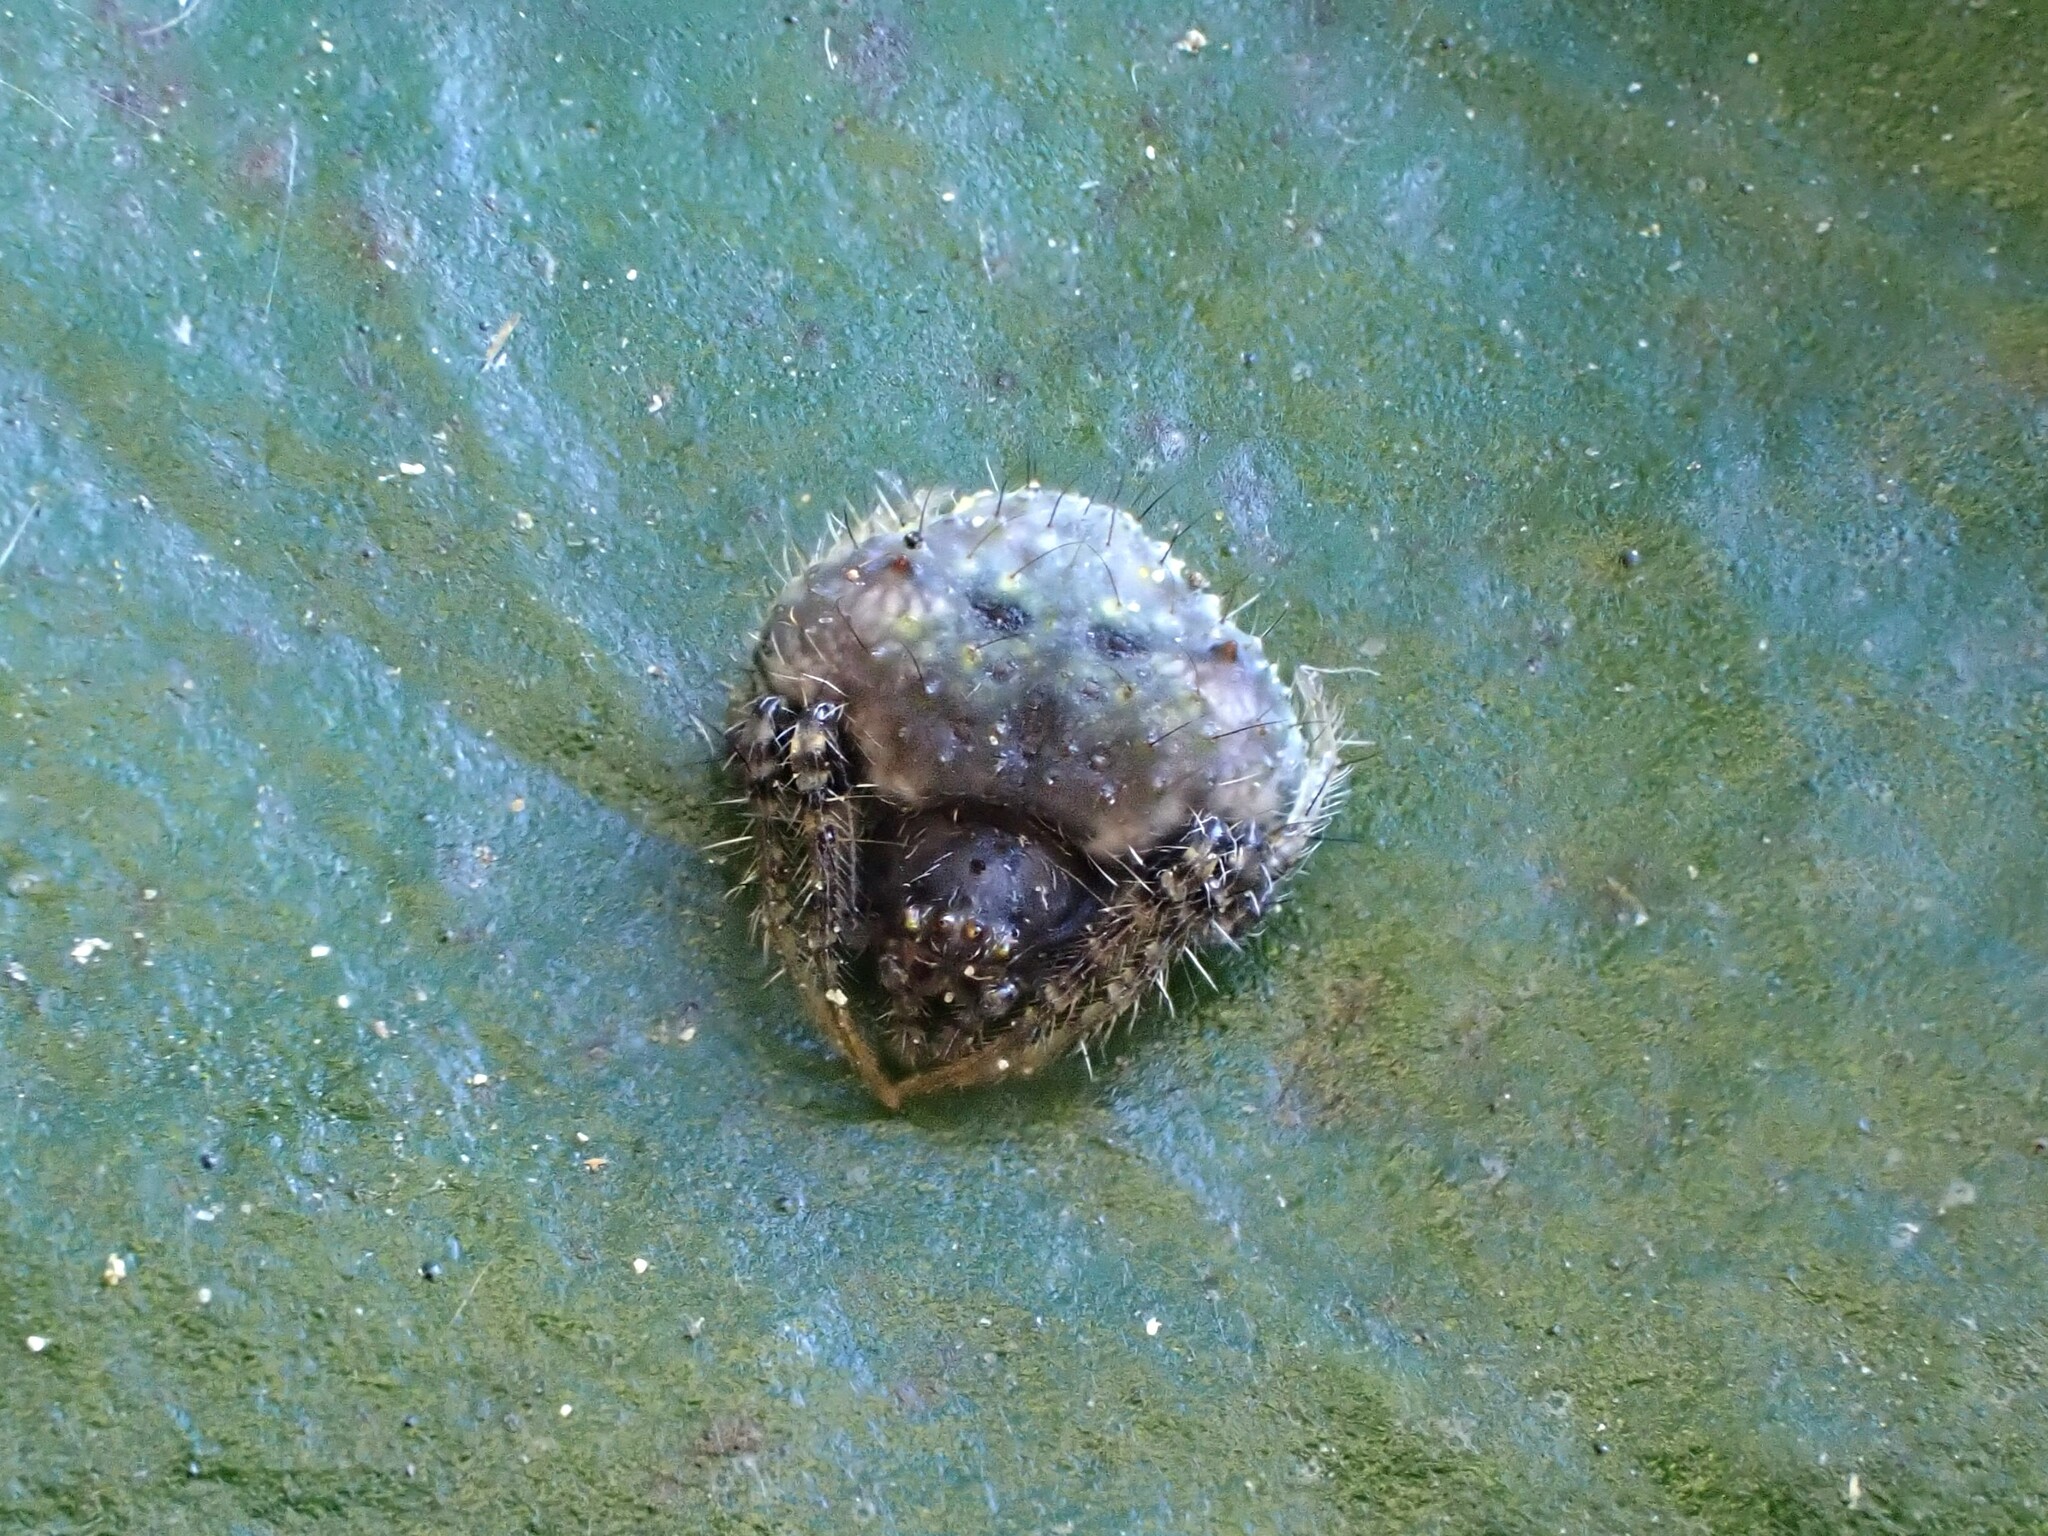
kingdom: Animalia
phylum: Arthropoda
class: Arachnida
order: Araneae
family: Araneidae
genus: Poecilopachys
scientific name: Poecilopachys australasia
